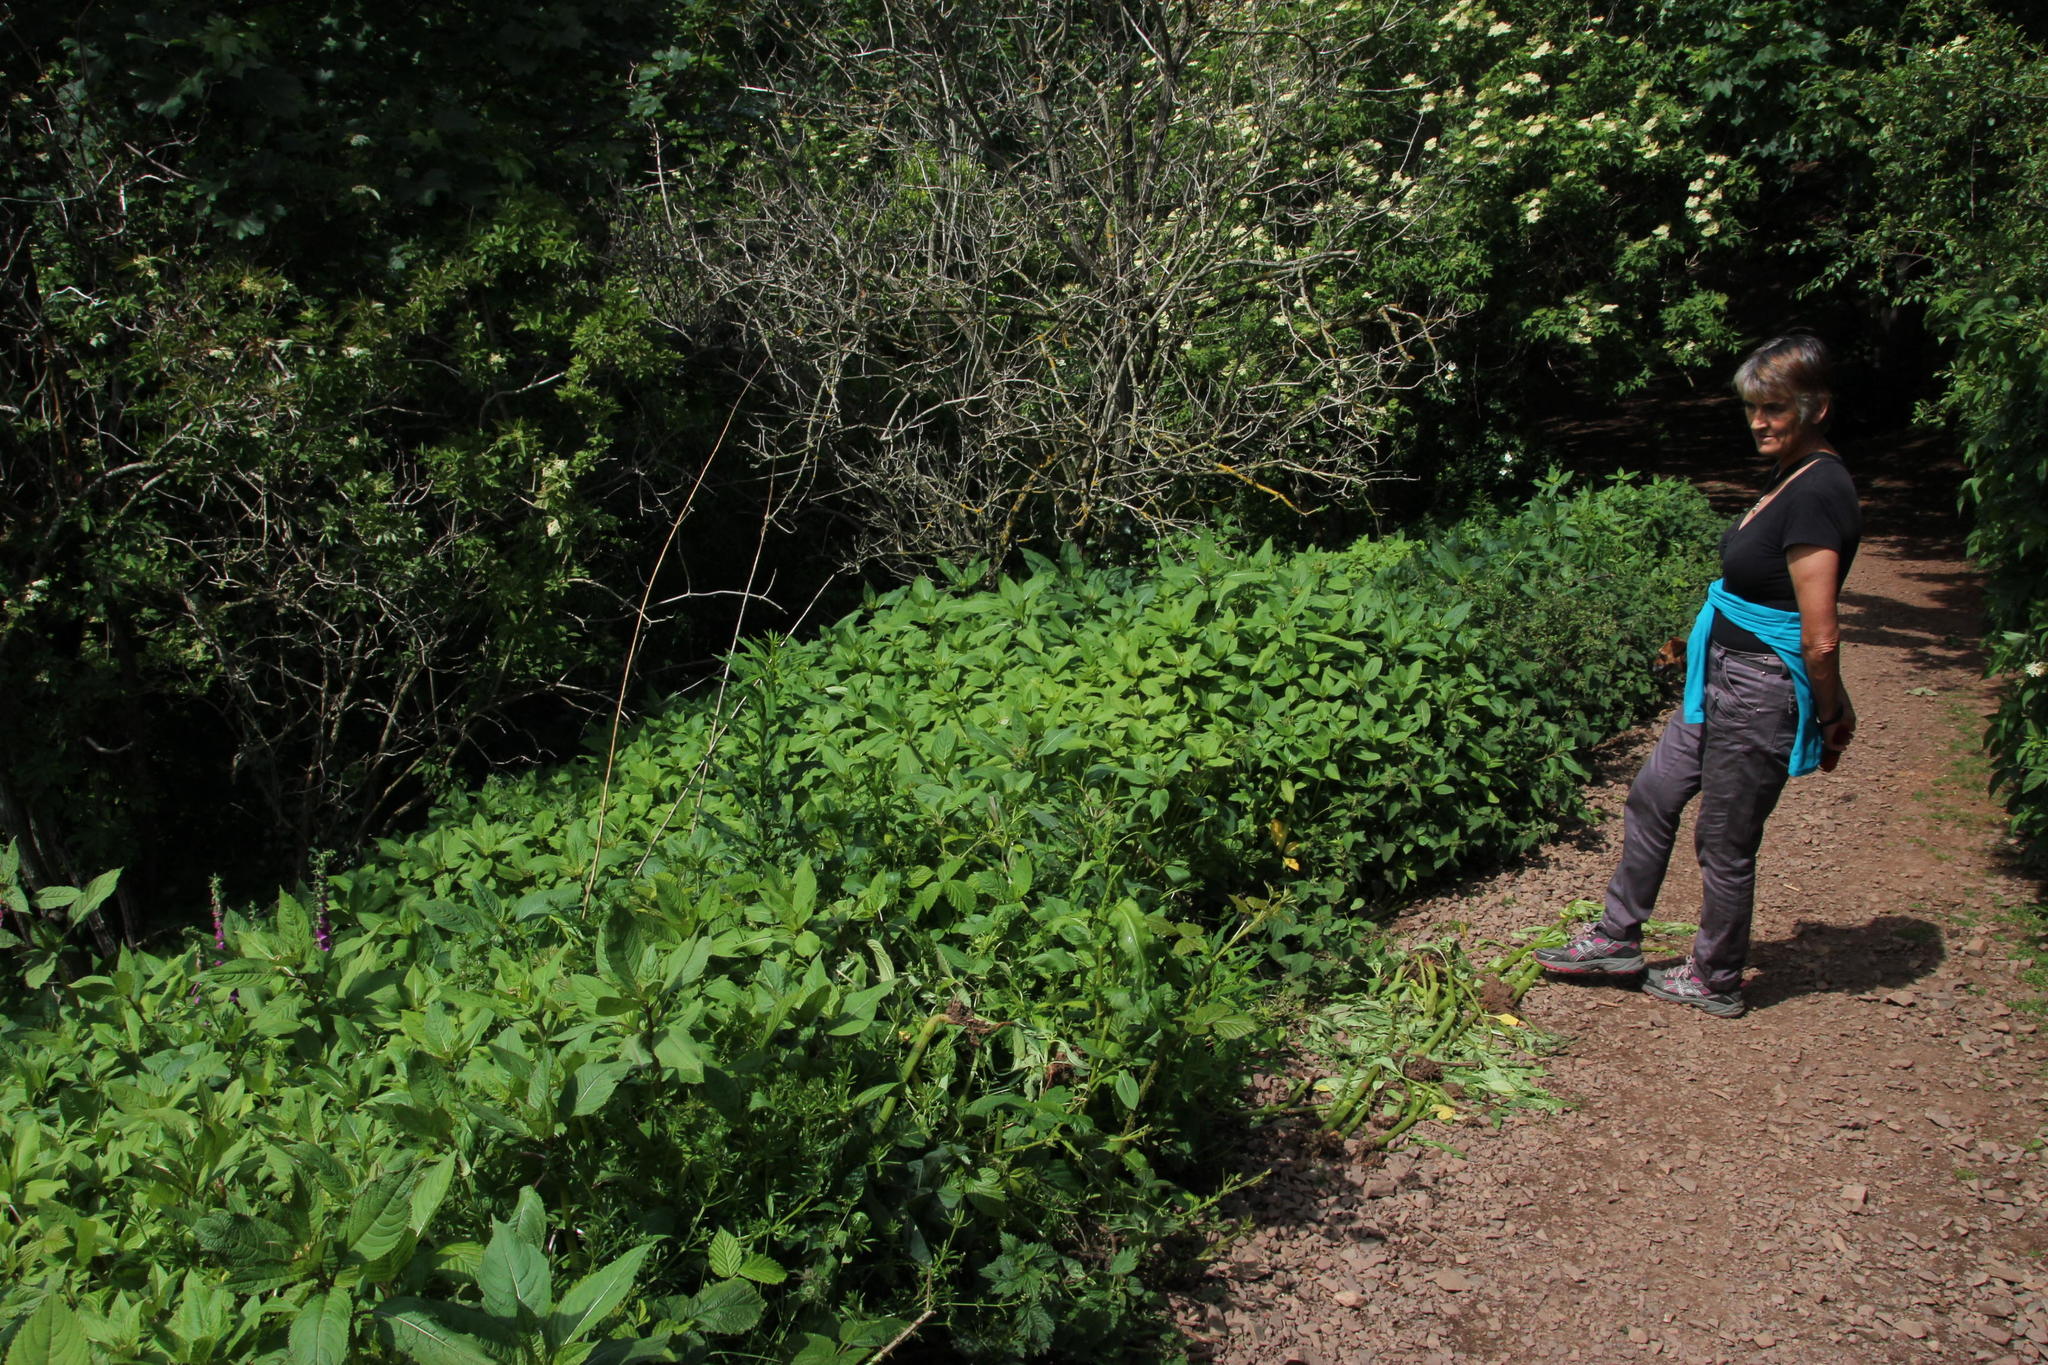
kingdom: Plantae
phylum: Tracheophyta
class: Magnoliopsida
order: Ericales
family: Balsaminaceae
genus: Impatiens
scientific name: Impatiens glandulifera
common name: Himalayan balsam
